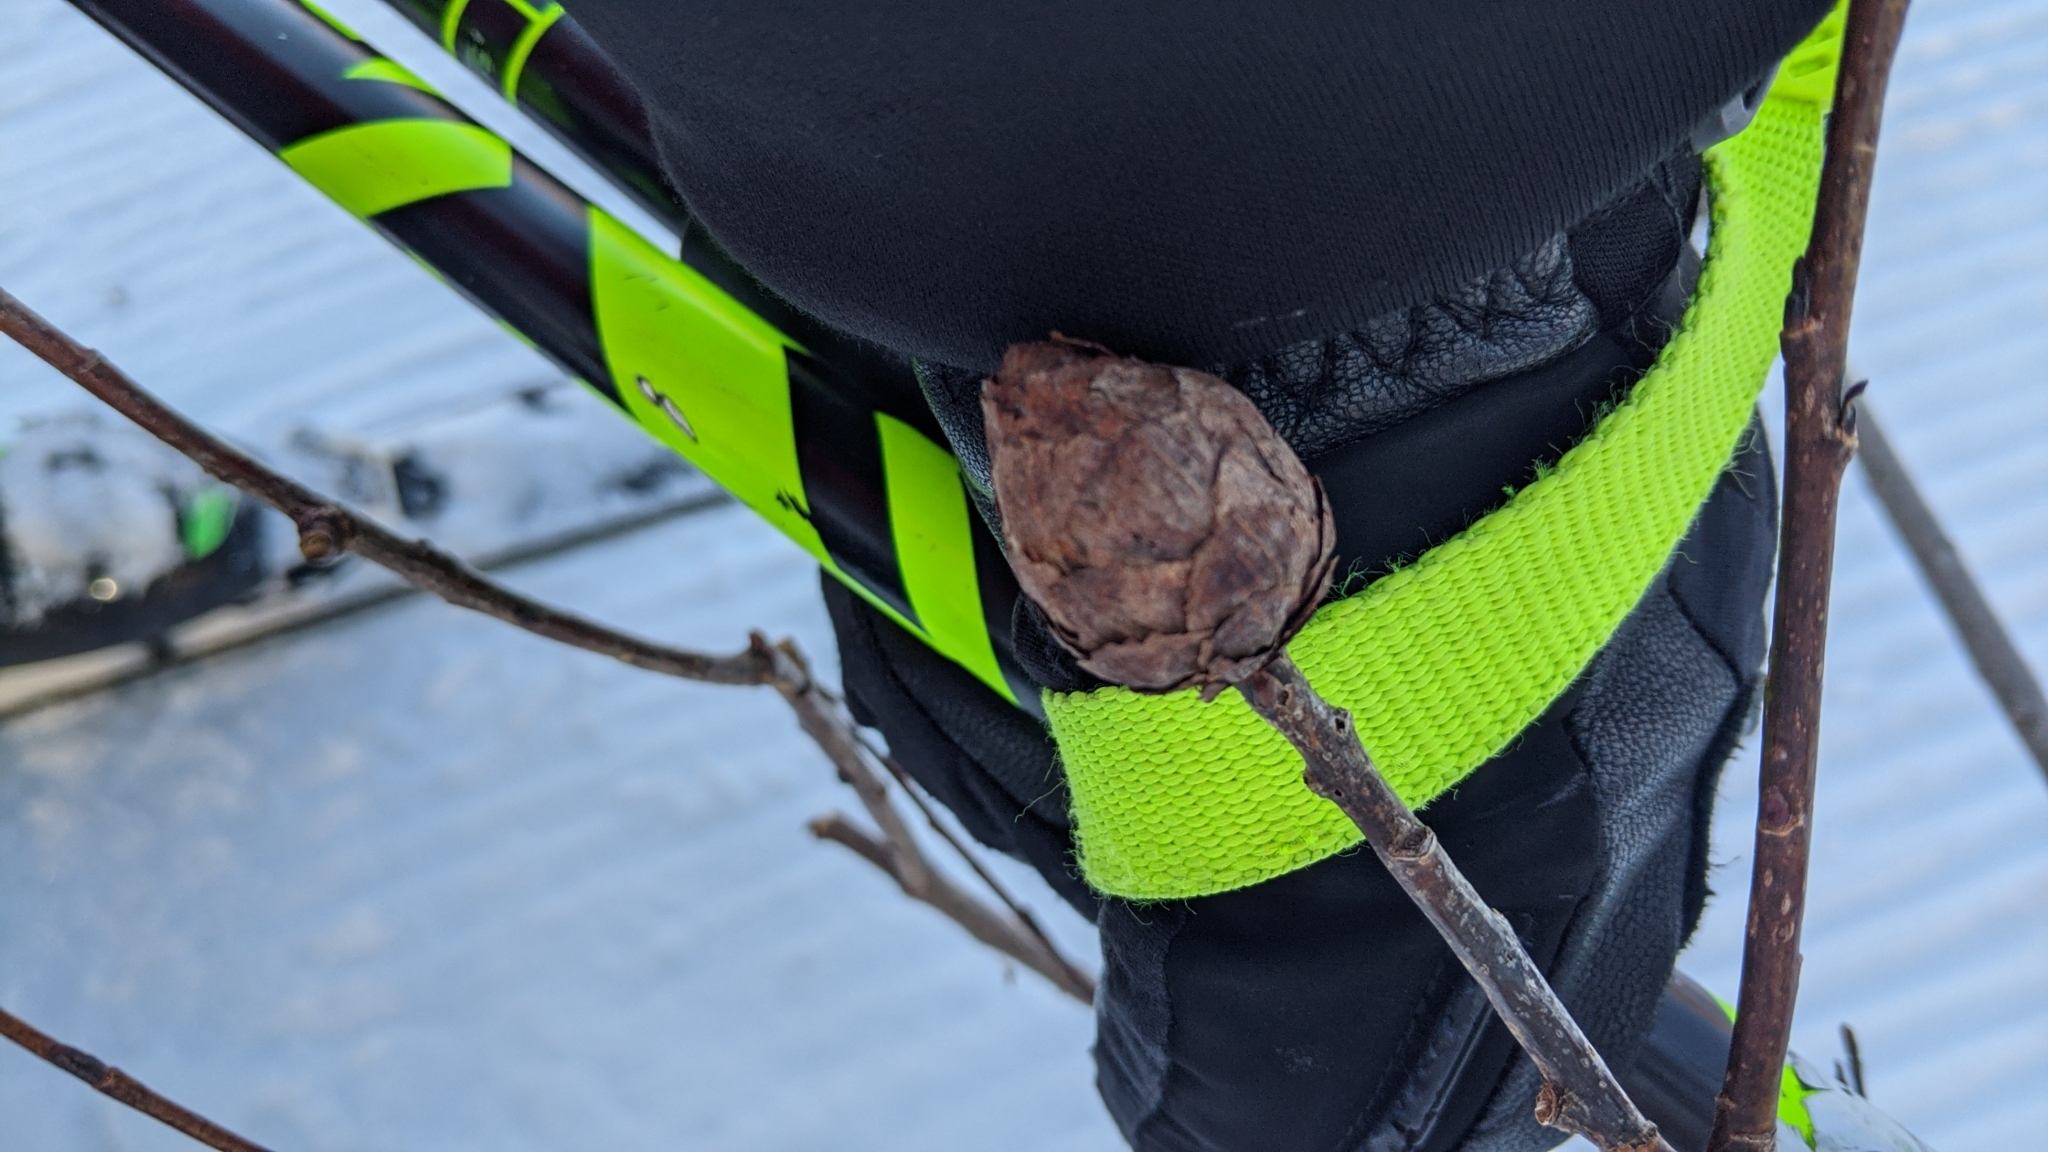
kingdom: Animalia
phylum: Arthropoda
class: Insecta
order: Diptera
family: Cecidomyiidae
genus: Rabdophaga
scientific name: Rabdophaga strobiloides
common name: Willow pinecone gall midge
